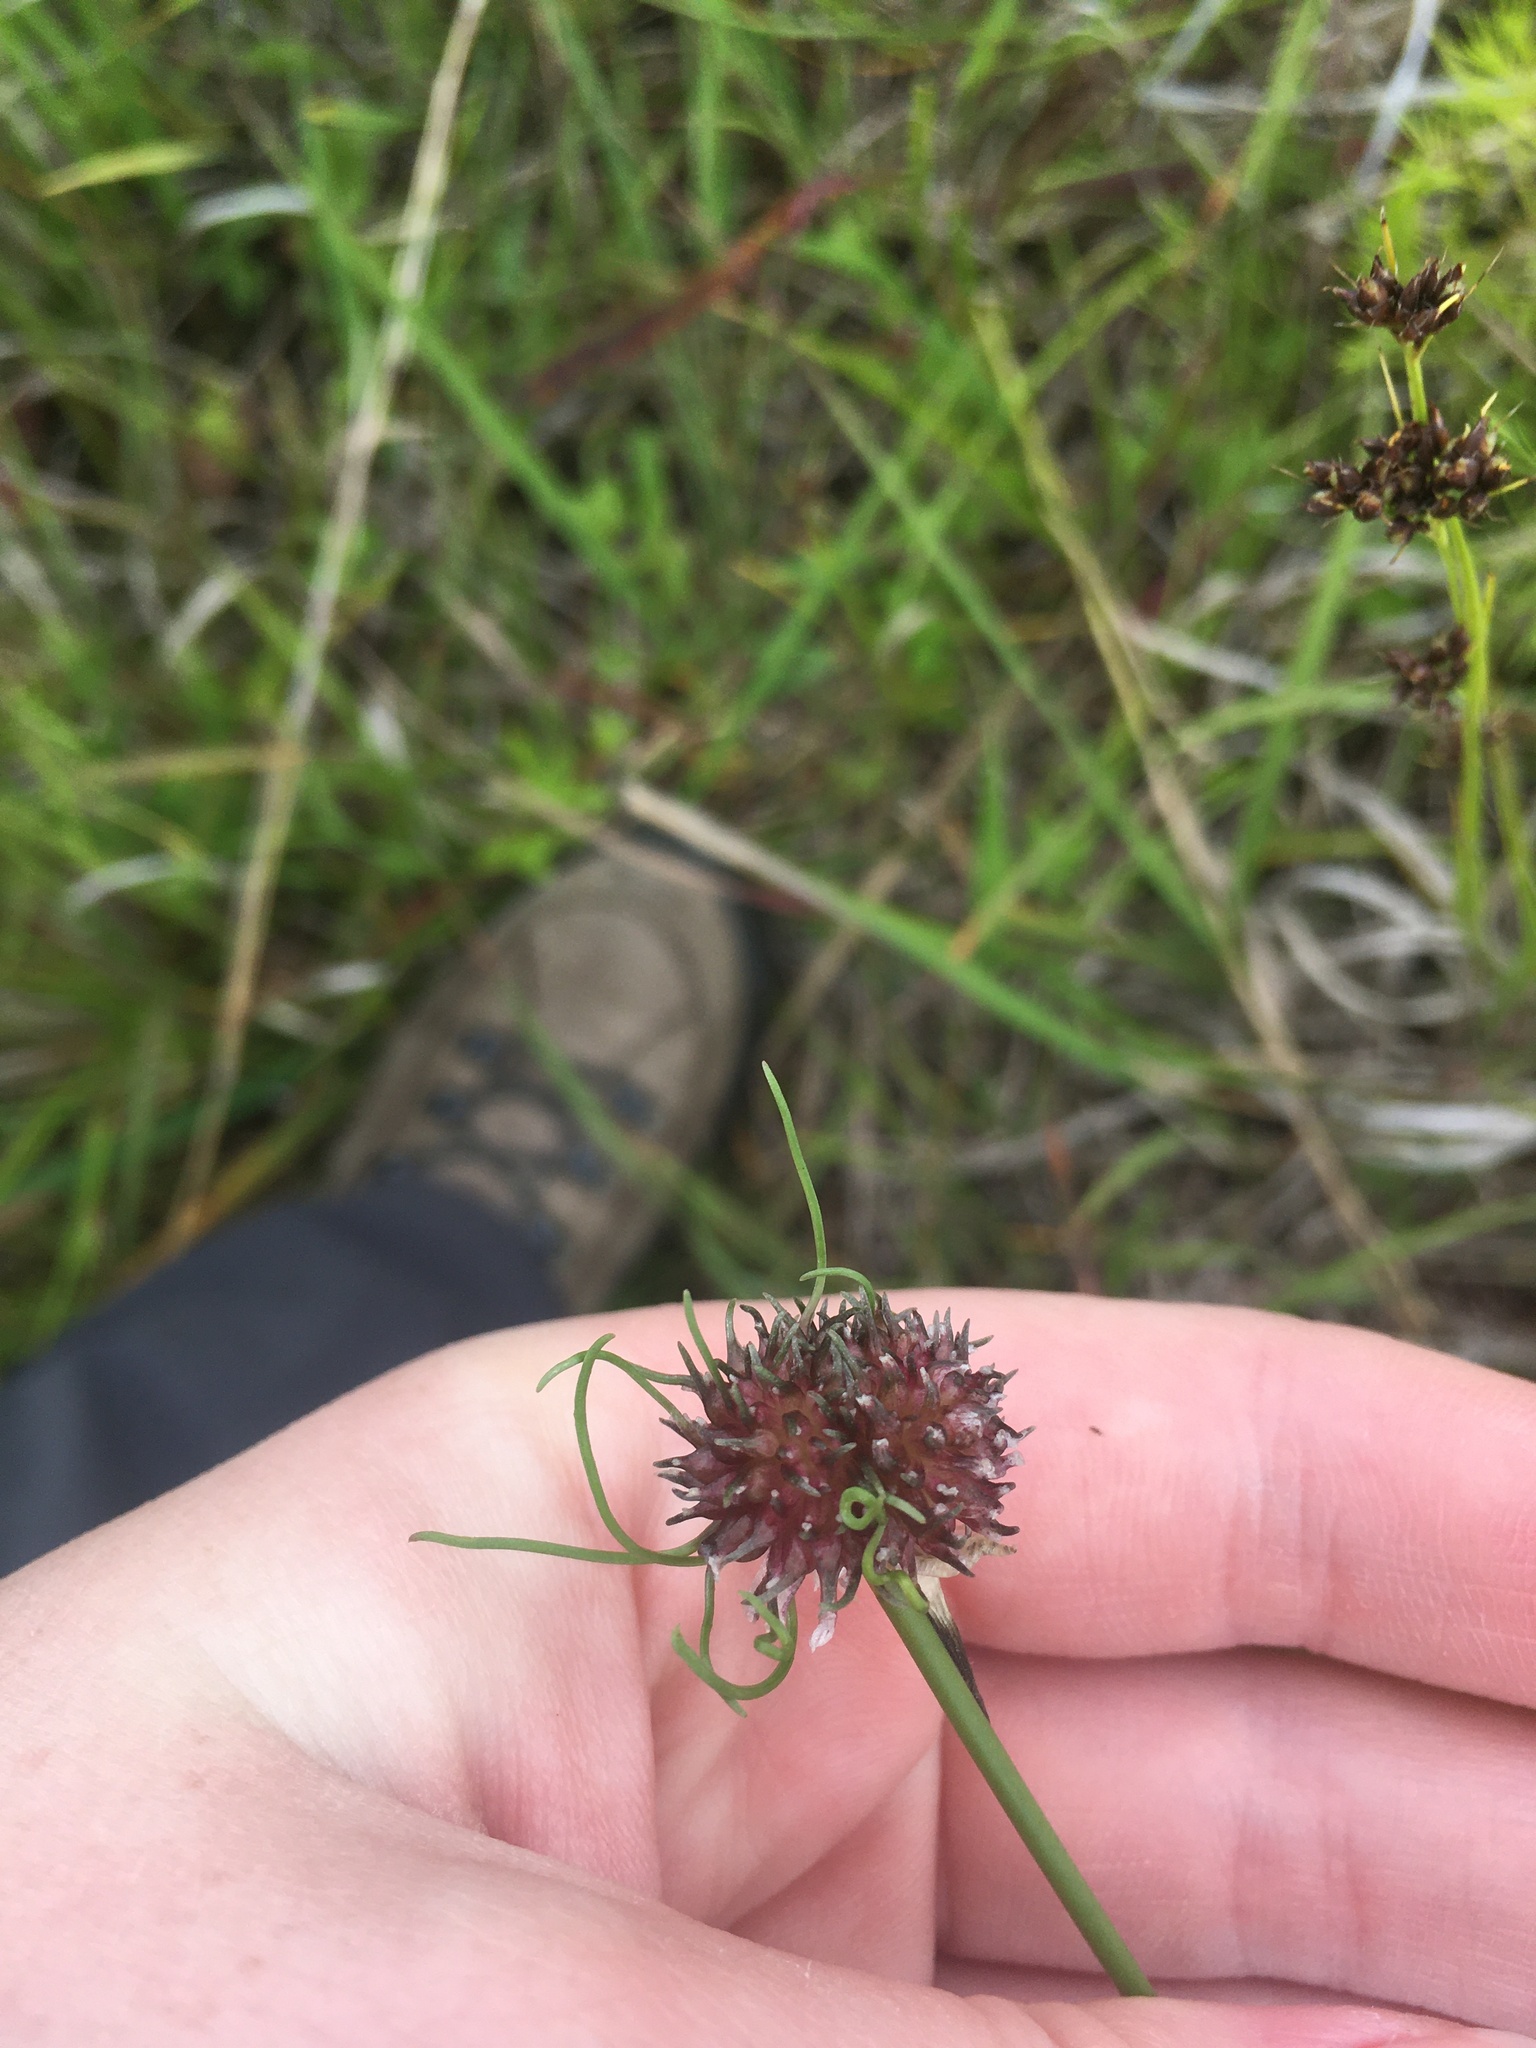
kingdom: Plantae
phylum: Tracheophyta
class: Liliopsida
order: Asparagales
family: Amaryllidaceae
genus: Allium
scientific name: Allium vineale
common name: Crow garlic
